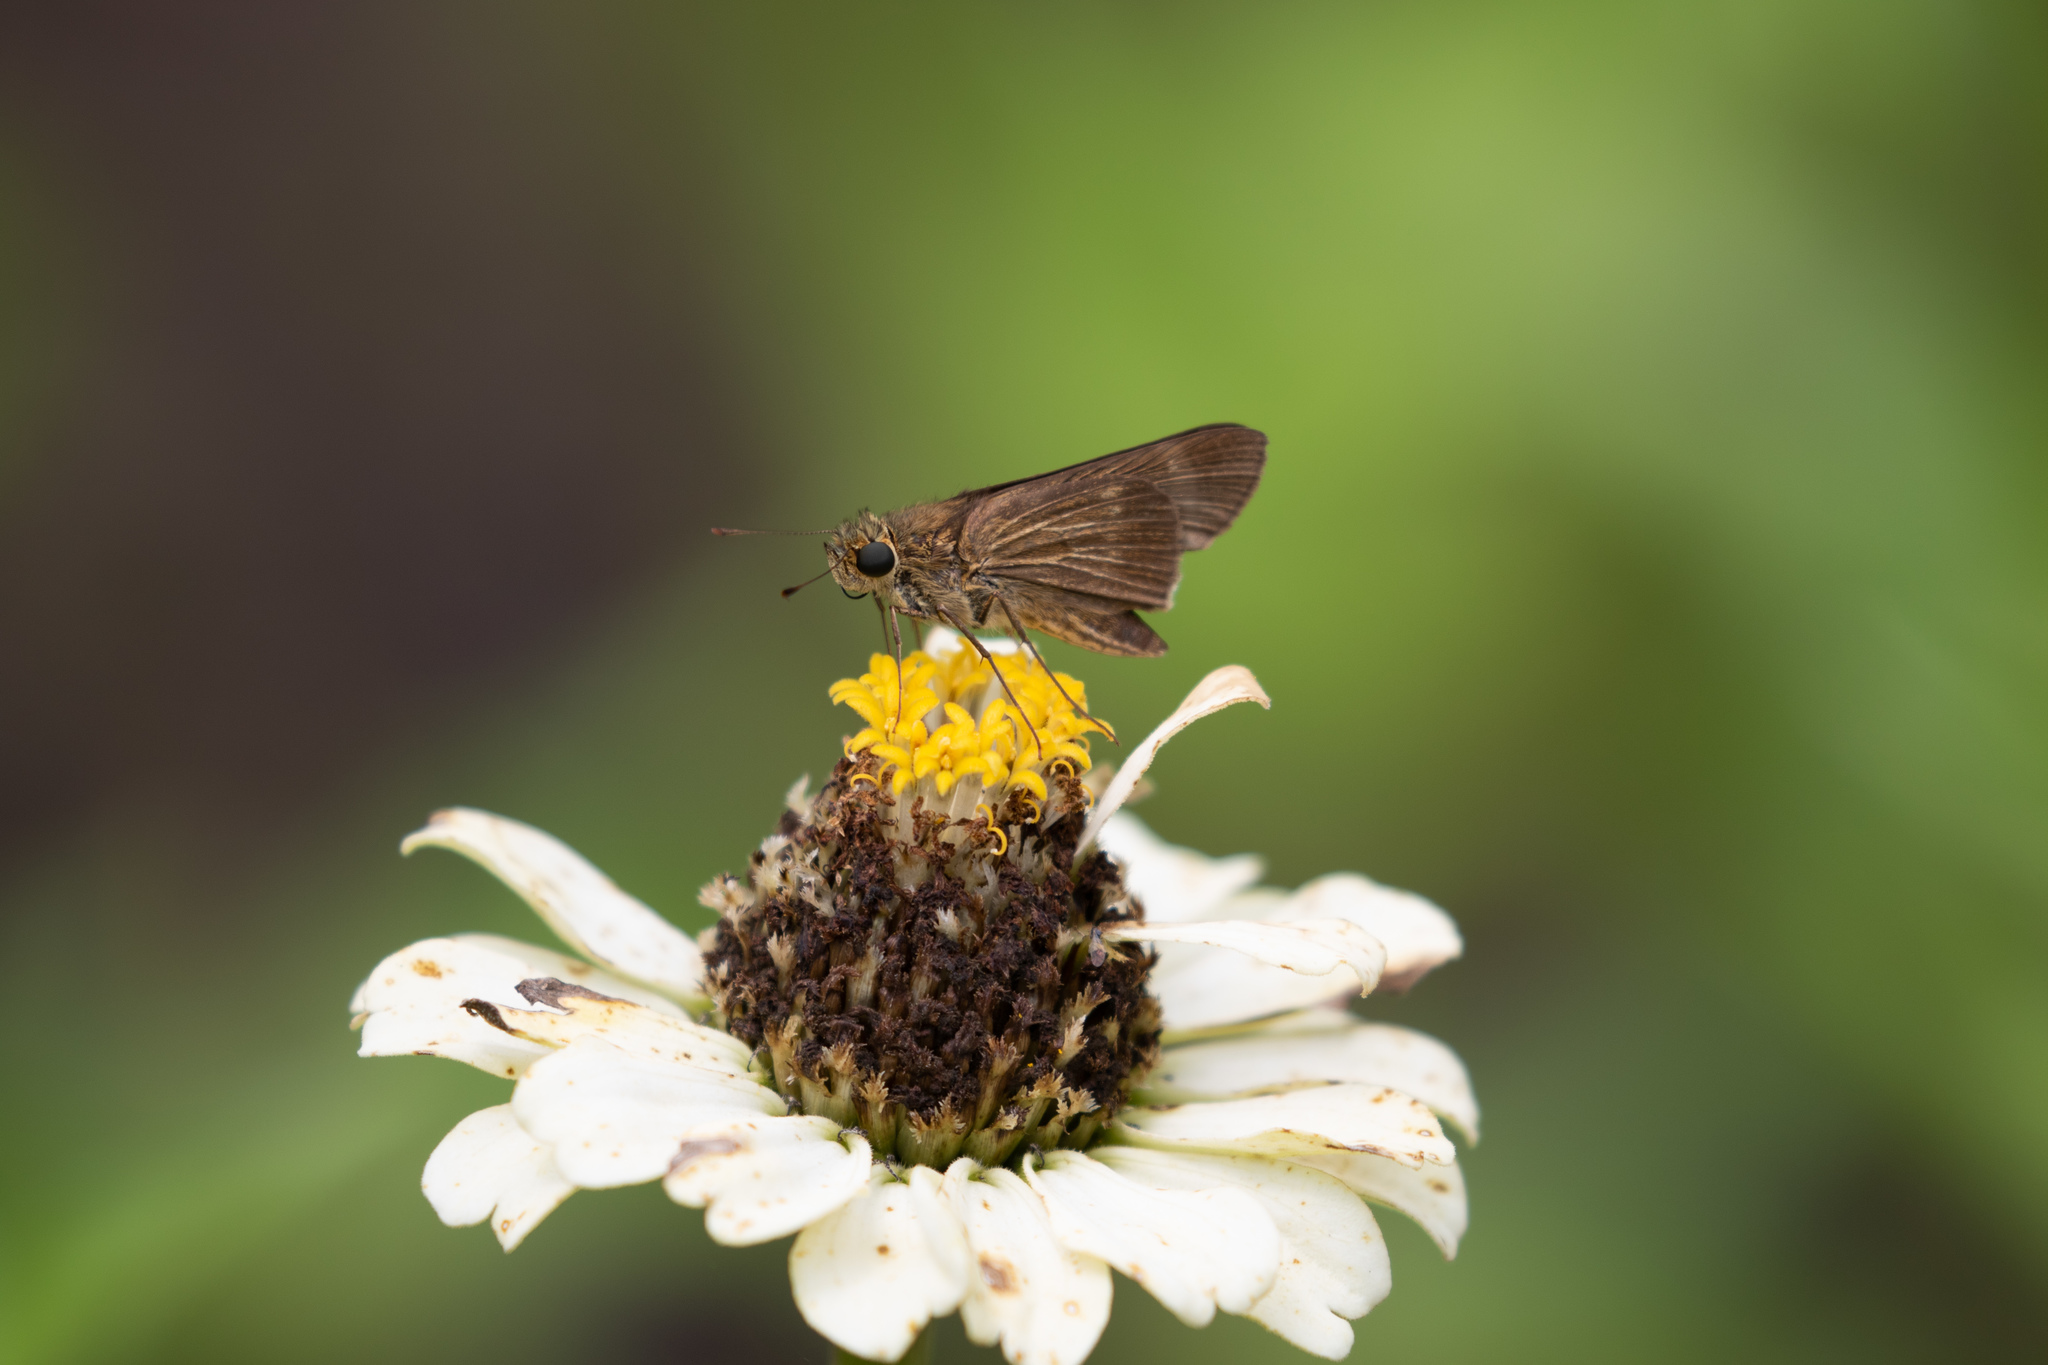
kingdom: Animalia
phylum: Arthropoda
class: Insecta
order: Lepidoptera
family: Hesperiidae
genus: Panoquina
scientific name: Panoquina ocola
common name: Ocola skipper
